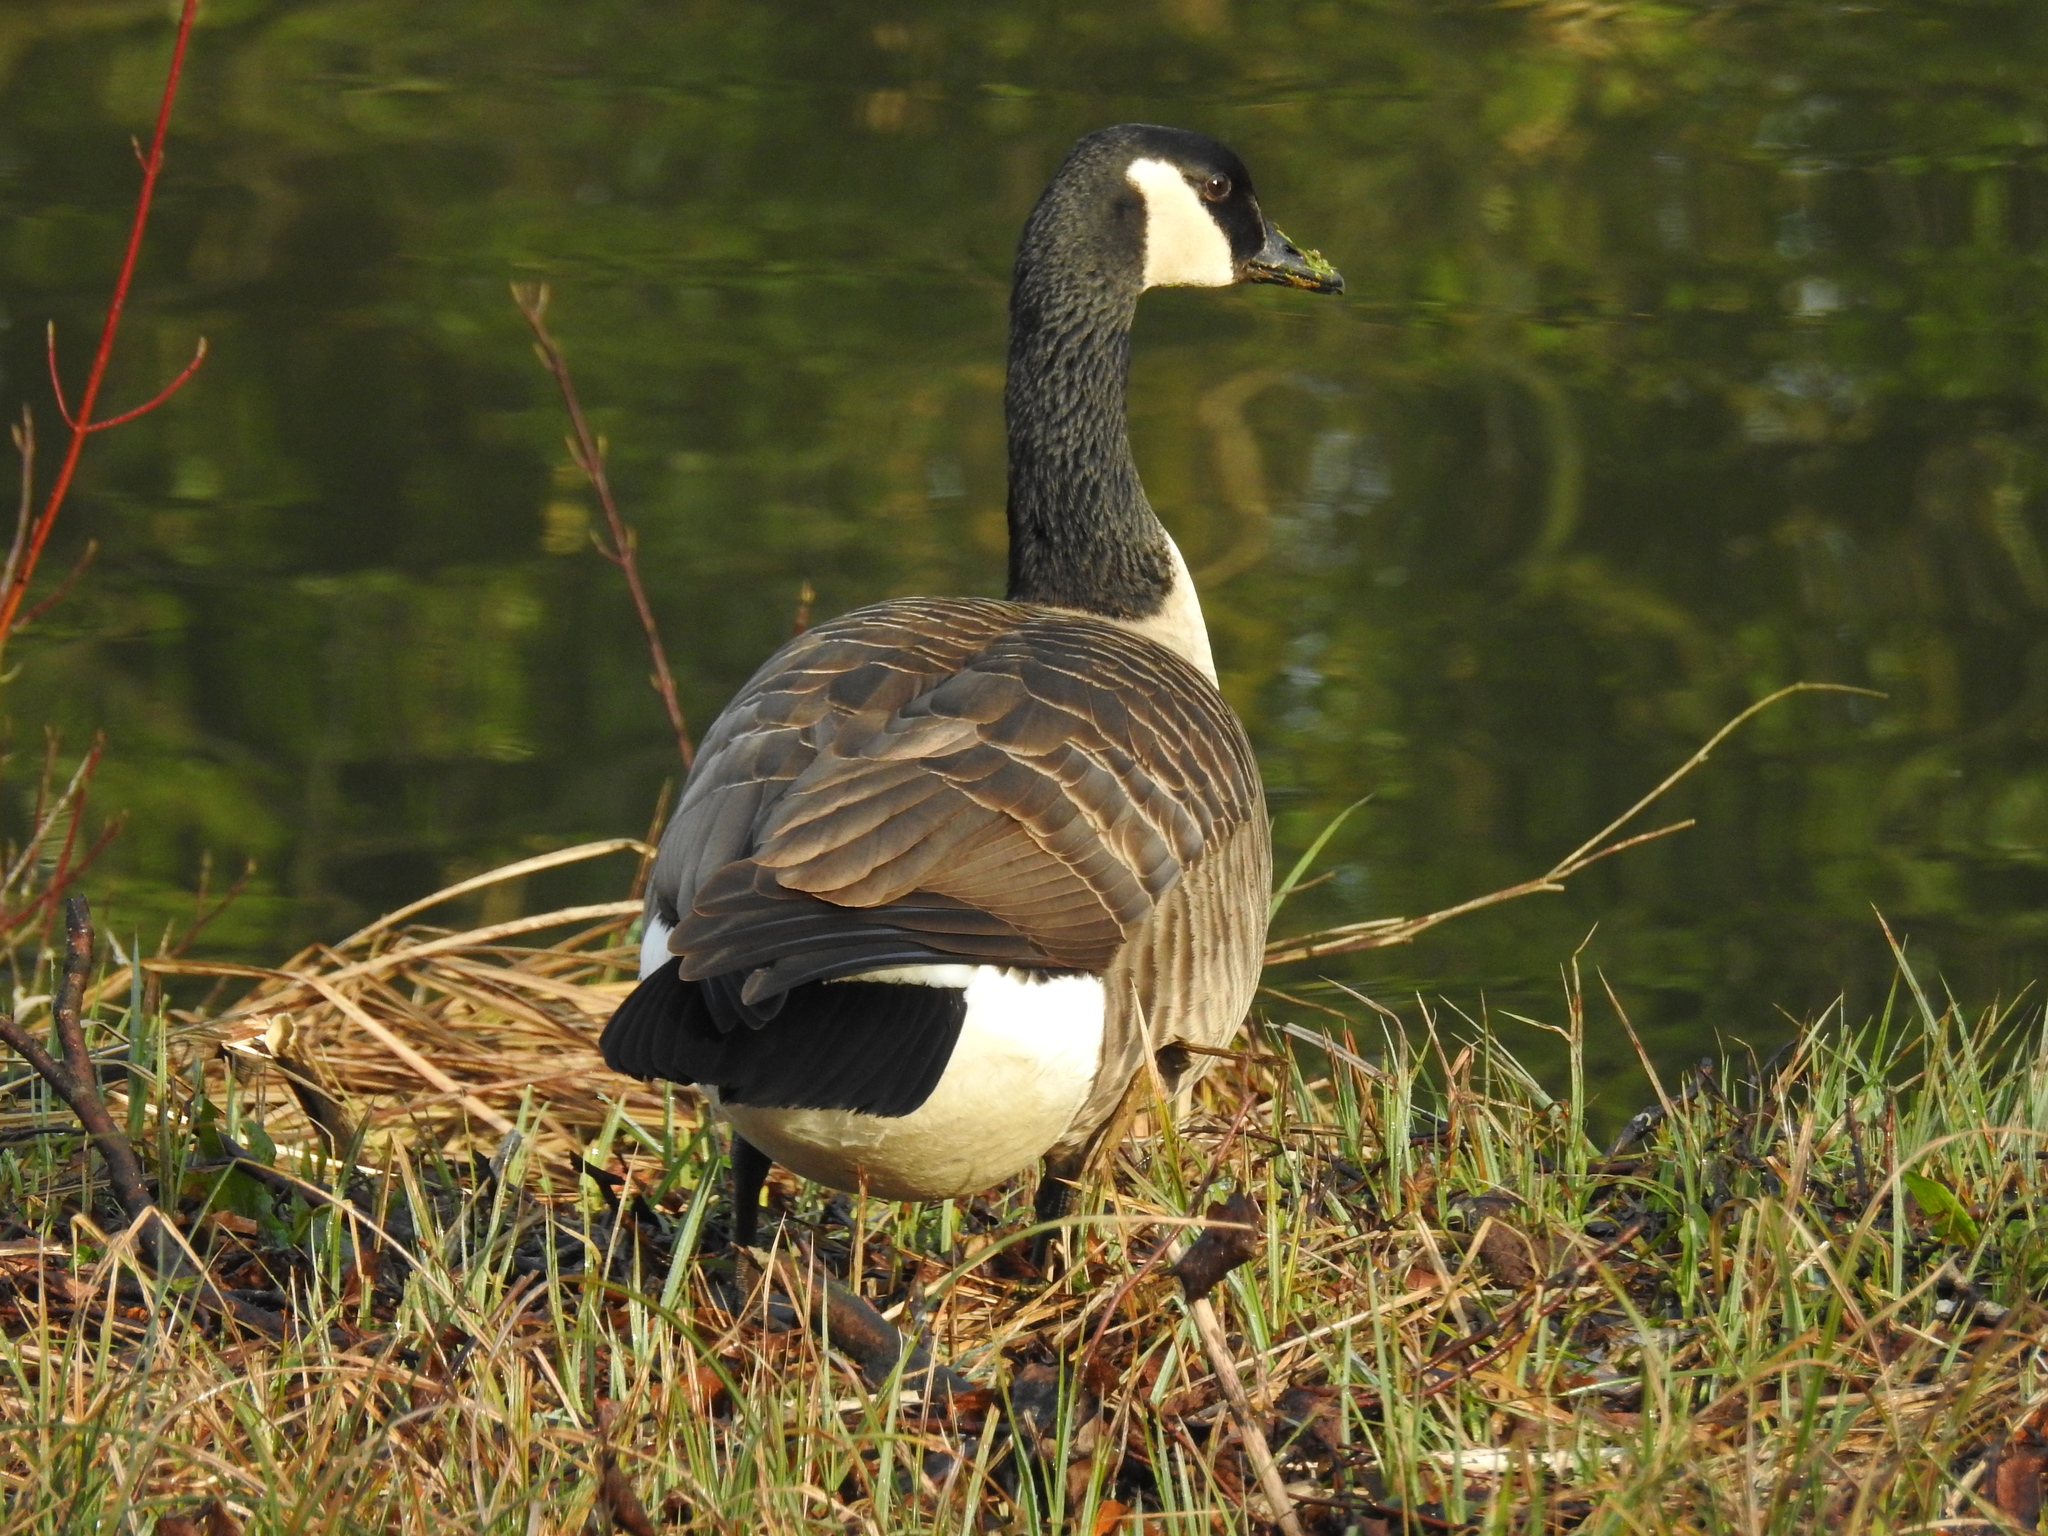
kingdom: Animalia
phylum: Chordata
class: Aves
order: Anseriformes
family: Anatidae
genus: Branta
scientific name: Branta canadensis
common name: Canada goose
